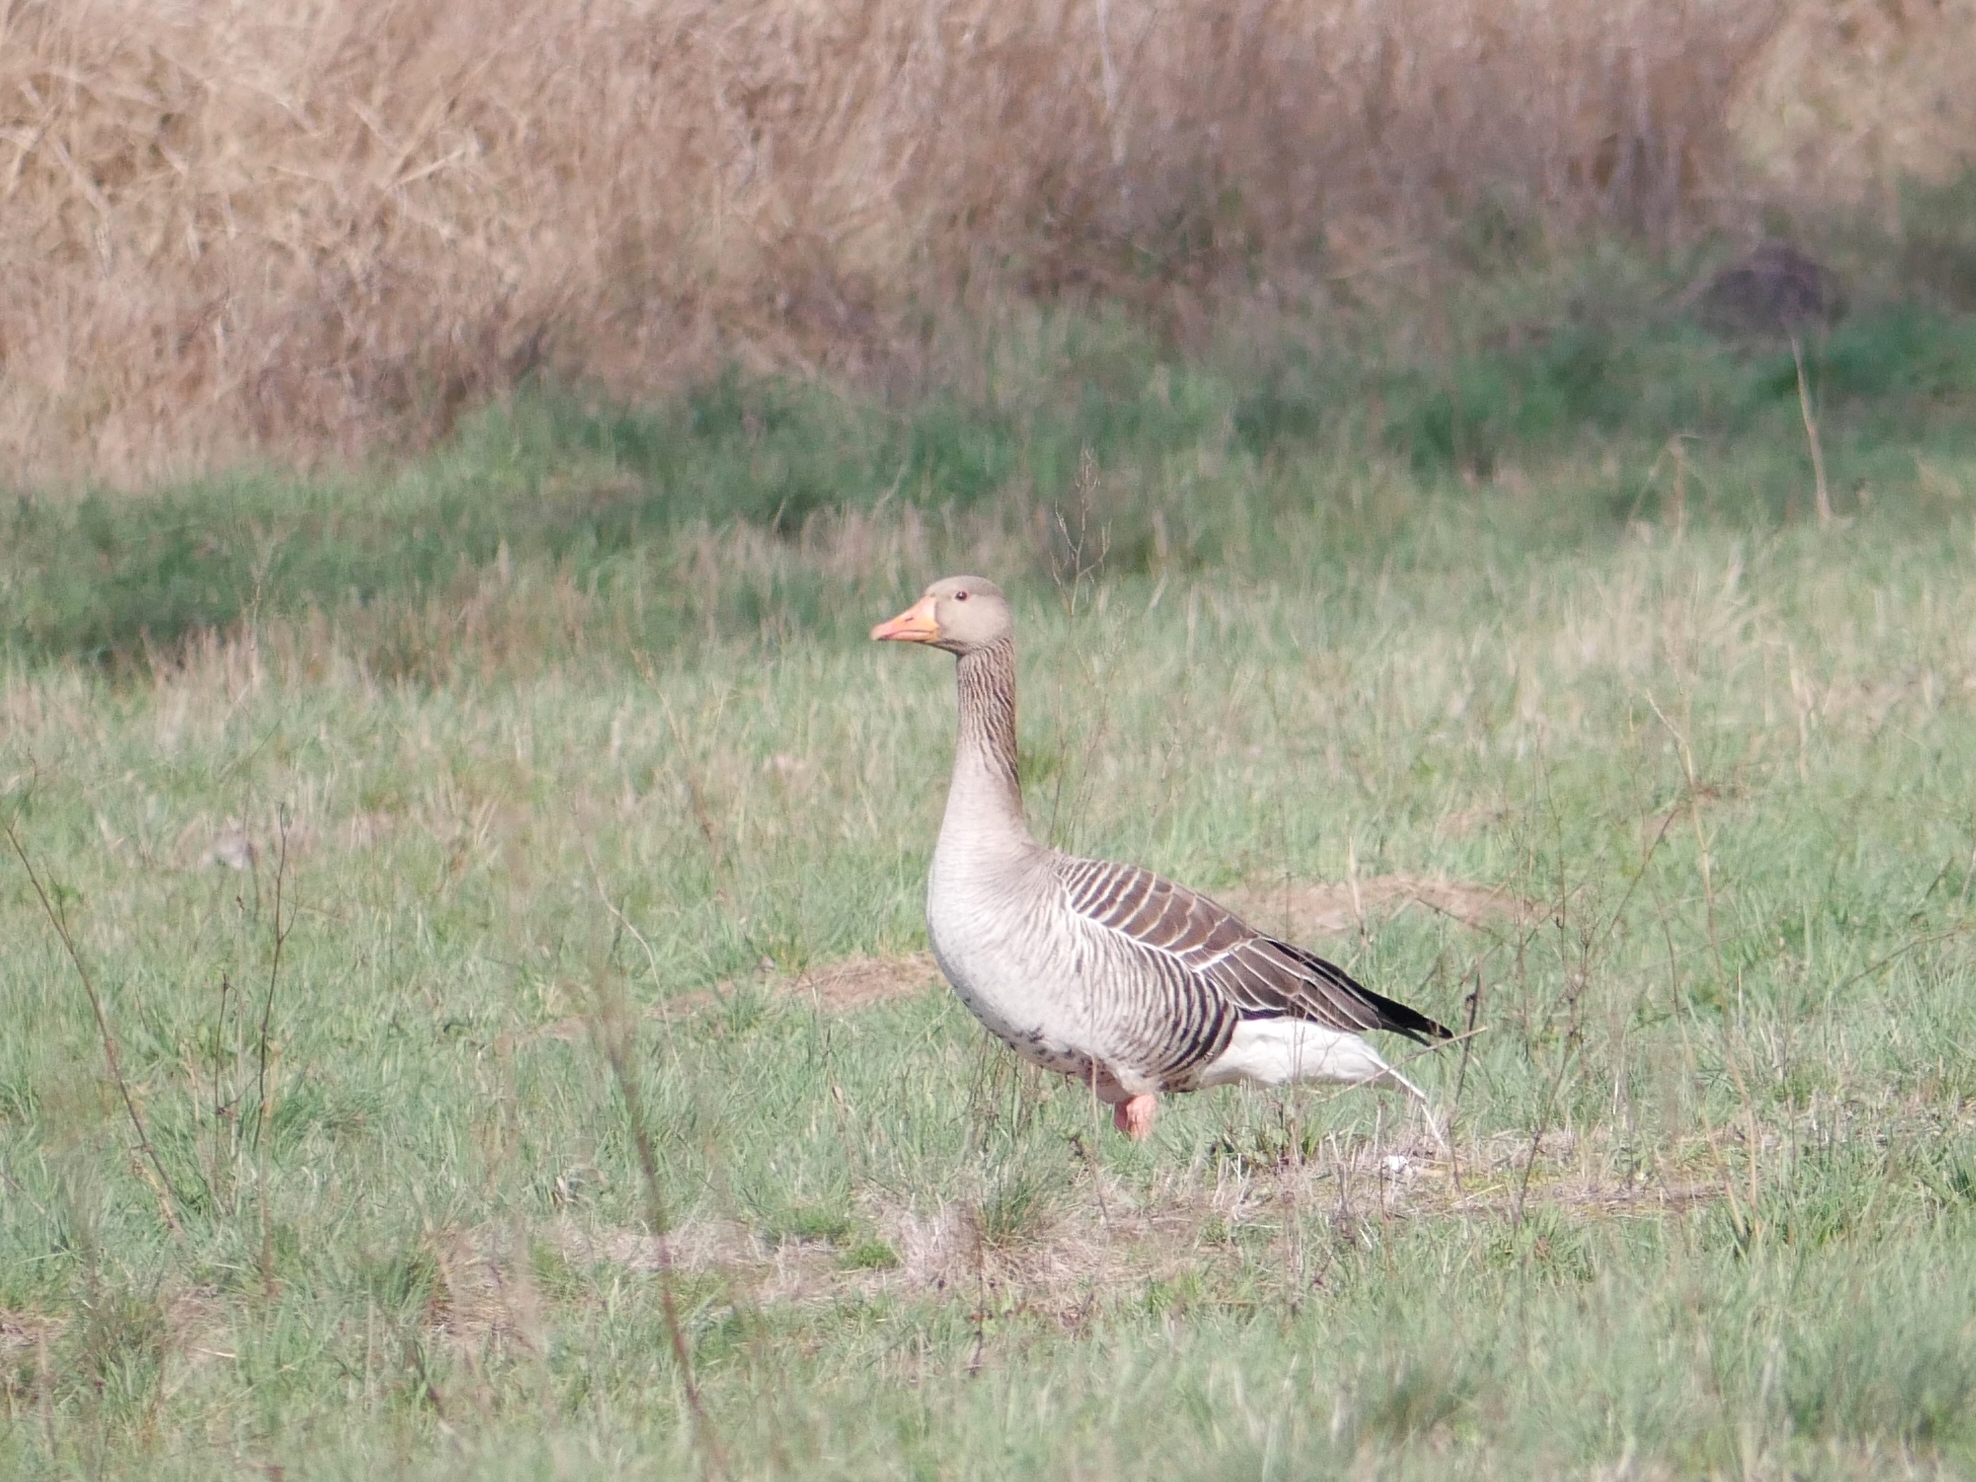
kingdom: Animalia
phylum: Chordata
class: Aves
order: Anseriformes
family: Anatidae
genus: Anser
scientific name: Anser anser
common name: Greylag goose
